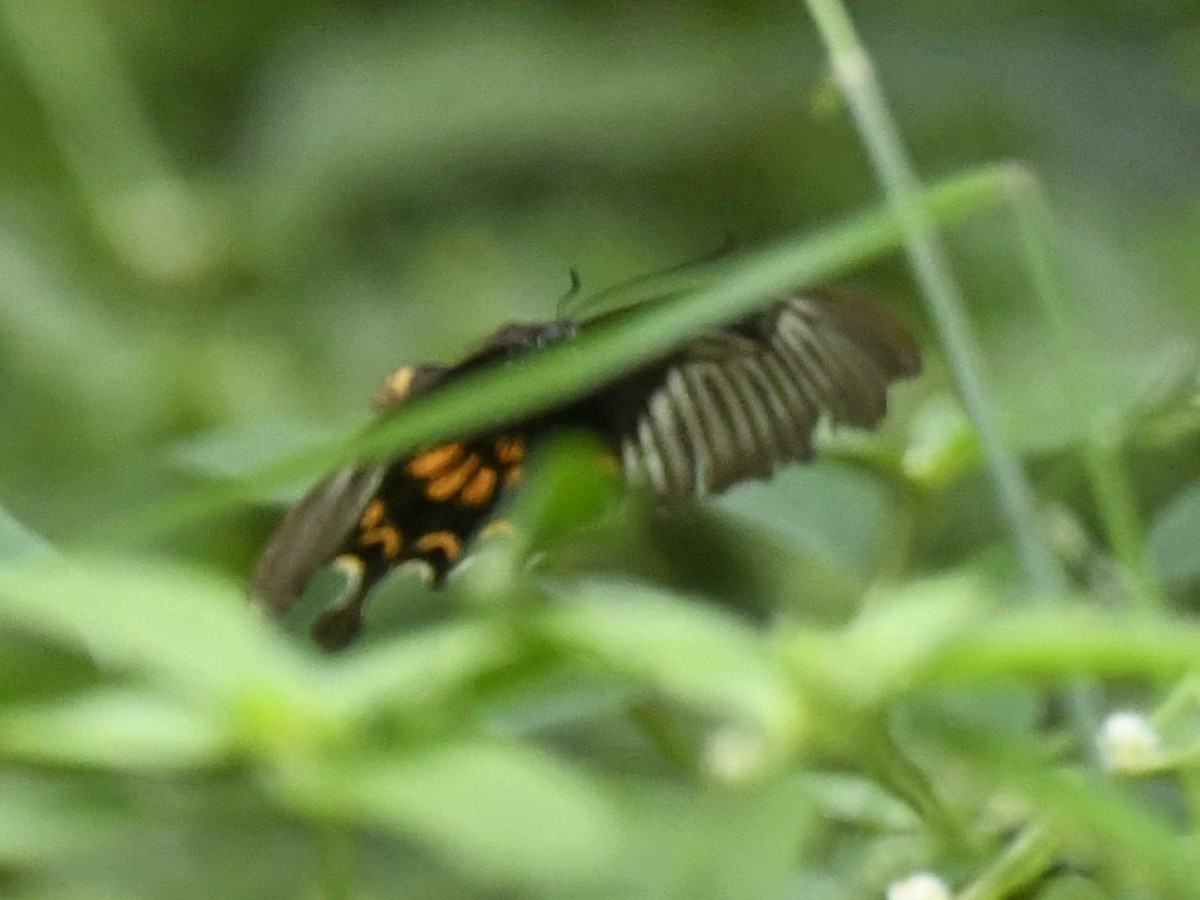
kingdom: Animalia
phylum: Arthropoda
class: Insecta
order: Lepidoptera
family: Papilionidae
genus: Papilio
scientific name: Papilio polytes
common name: Common mormon
